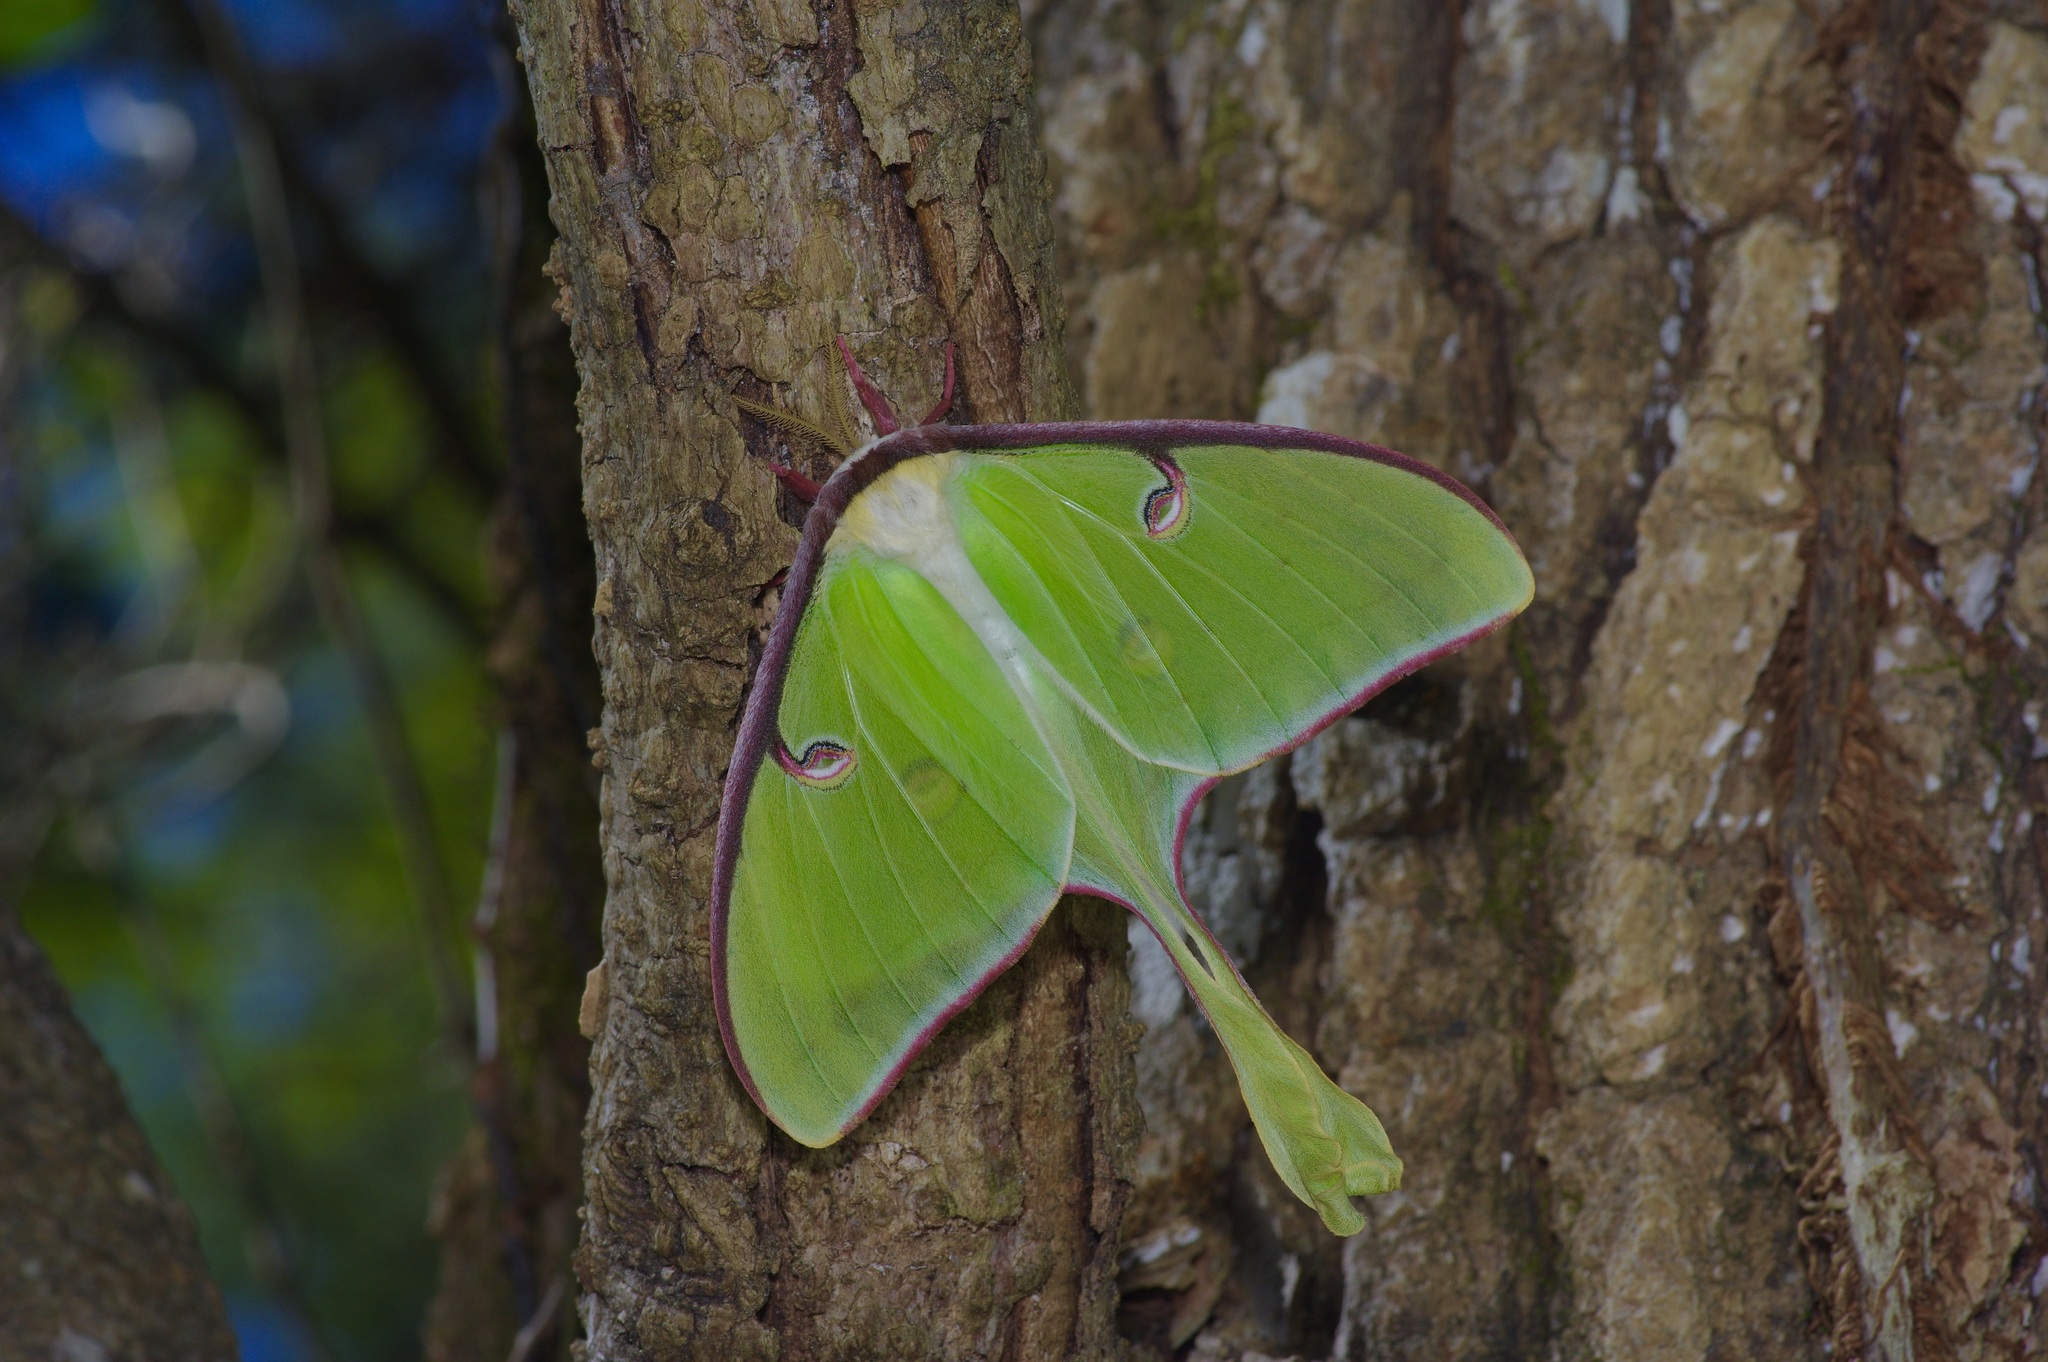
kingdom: Animalia
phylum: Arthropoda
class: Insecta
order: Lepidoptera
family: Saturniidae
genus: Actias
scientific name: Actias luna
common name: Luna moth
